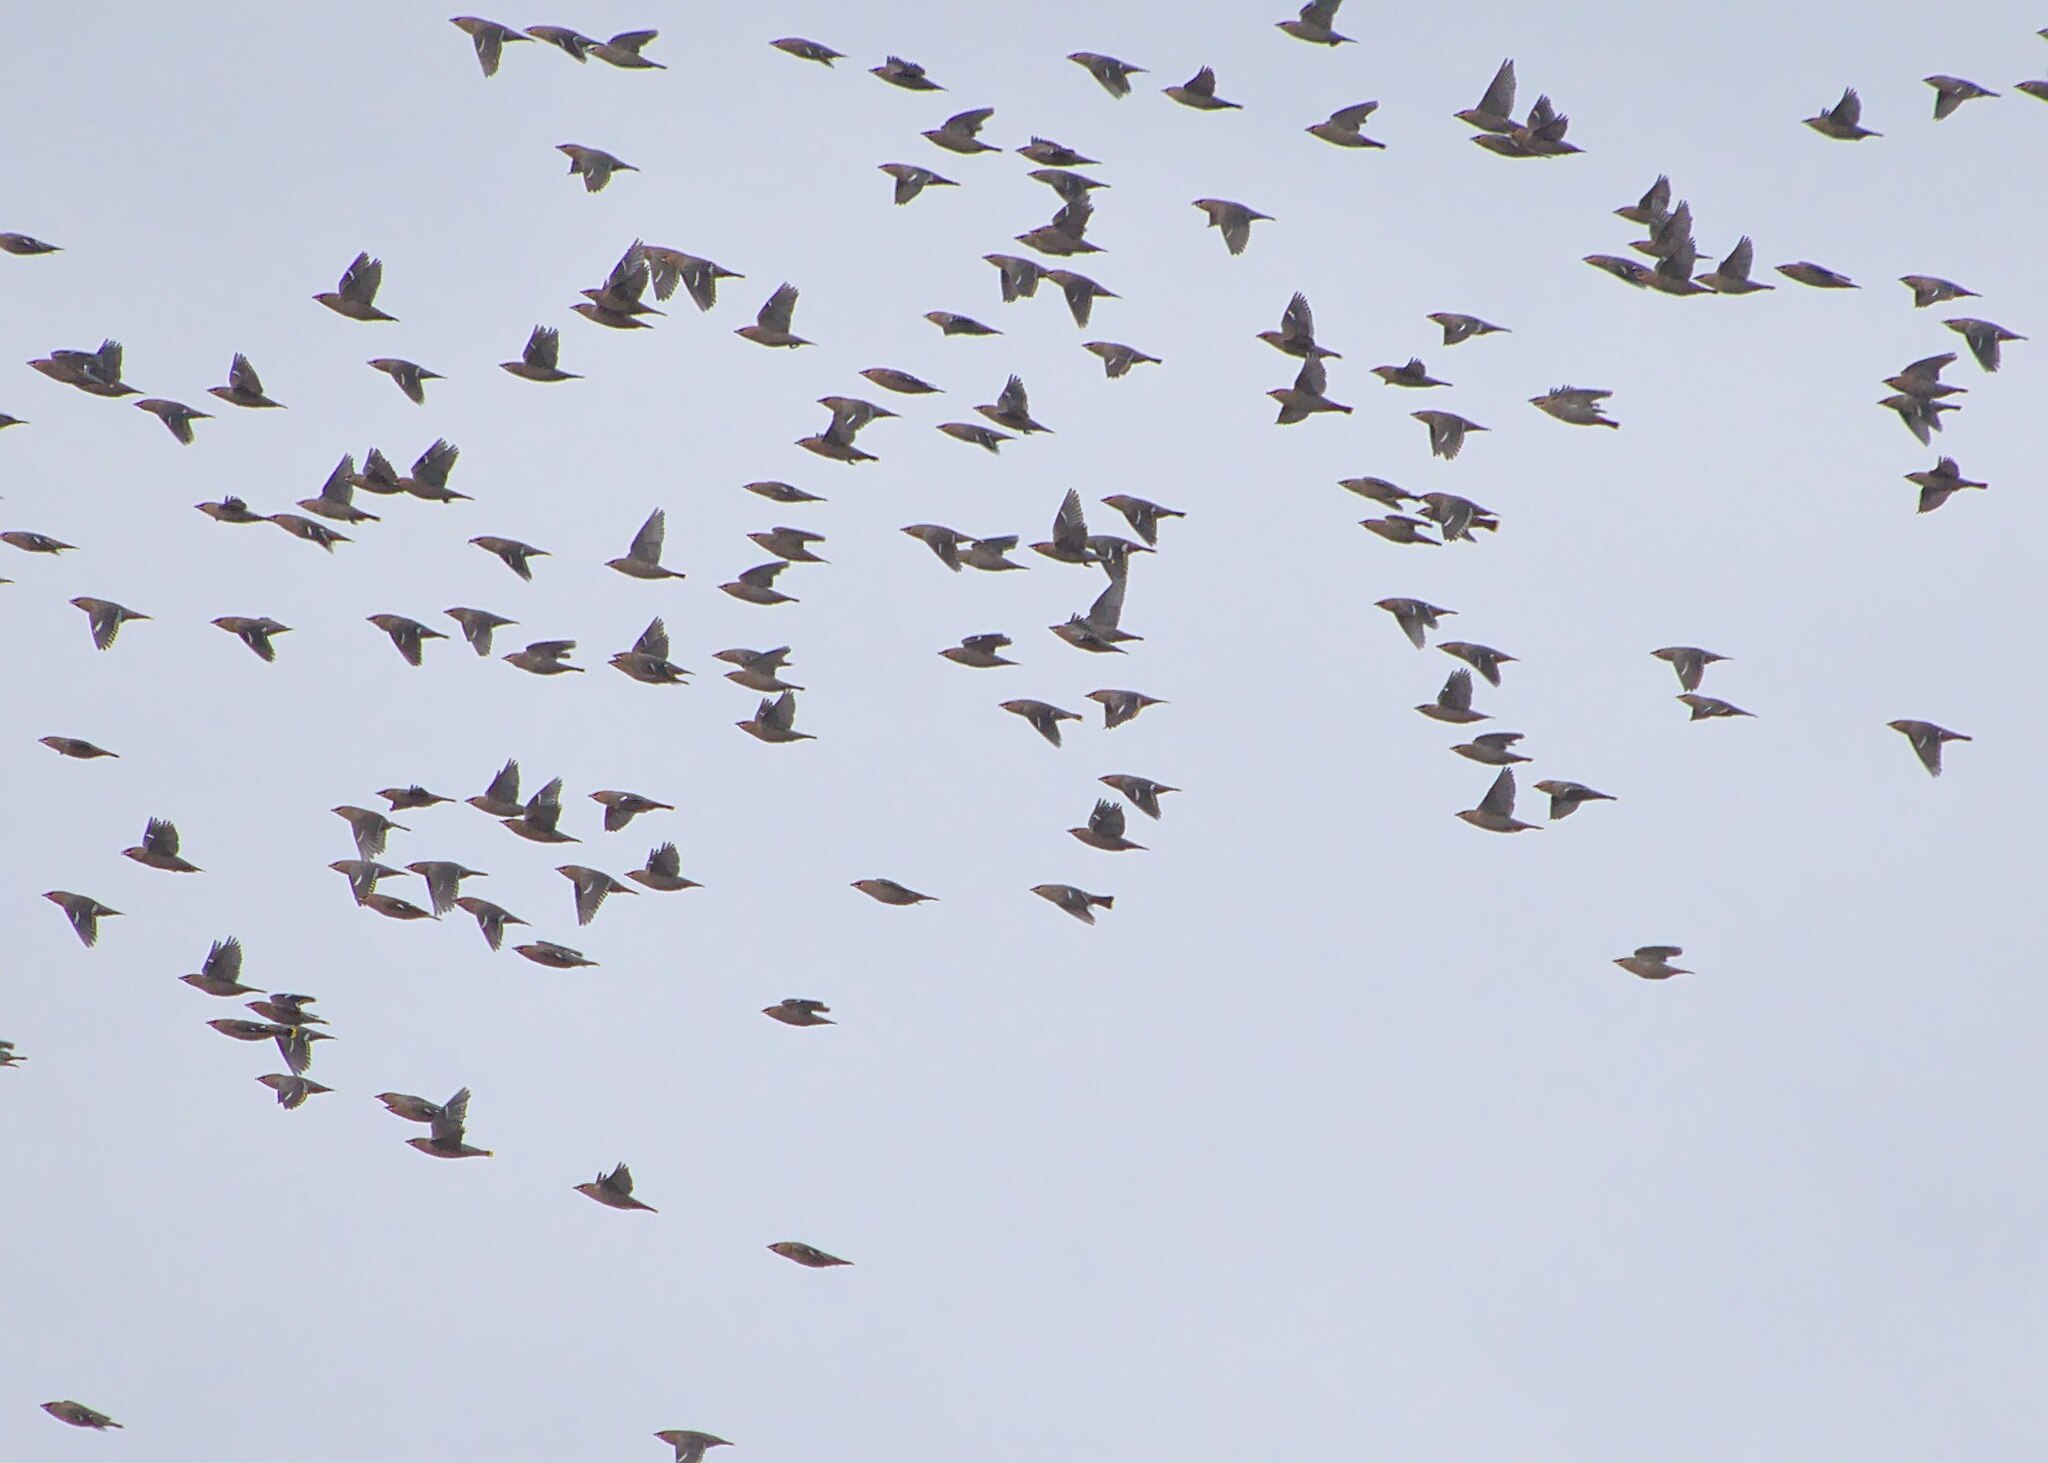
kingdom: Animalia
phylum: Chordata
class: Aves
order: Passeriformes
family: Bombycillidae
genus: Bombycilla
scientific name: Bombycilla garrulus
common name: Bohemian waxwing
